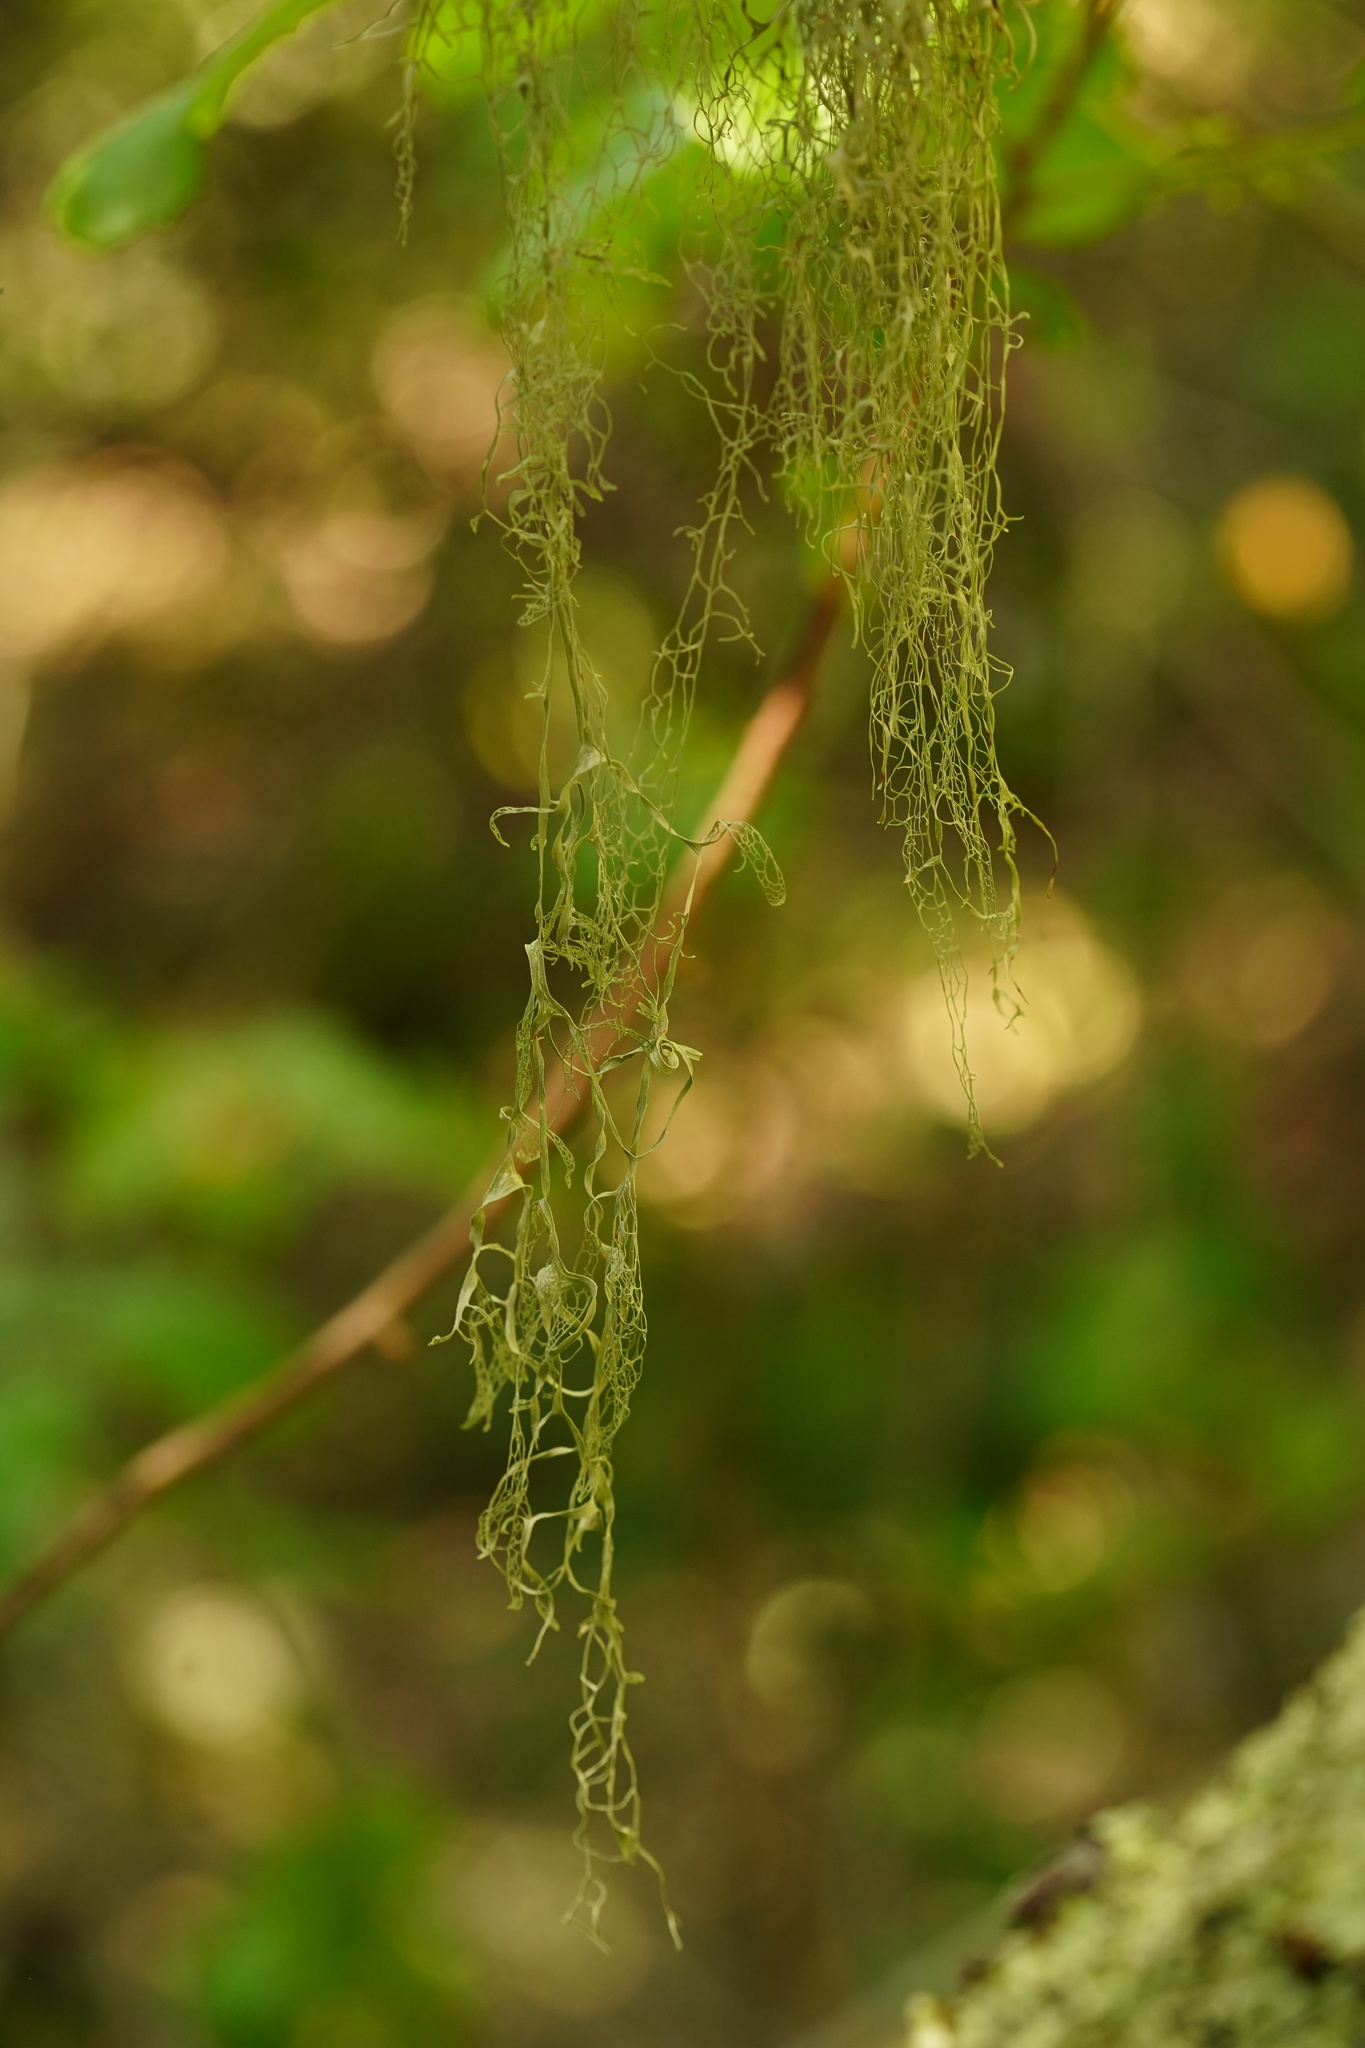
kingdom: Fungi
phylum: Ascomycota
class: Lecanoromycetes
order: Lecanorales
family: Ramalinaceae
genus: Ramalina
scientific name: Ramalina menziesii
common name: Lace lichen
